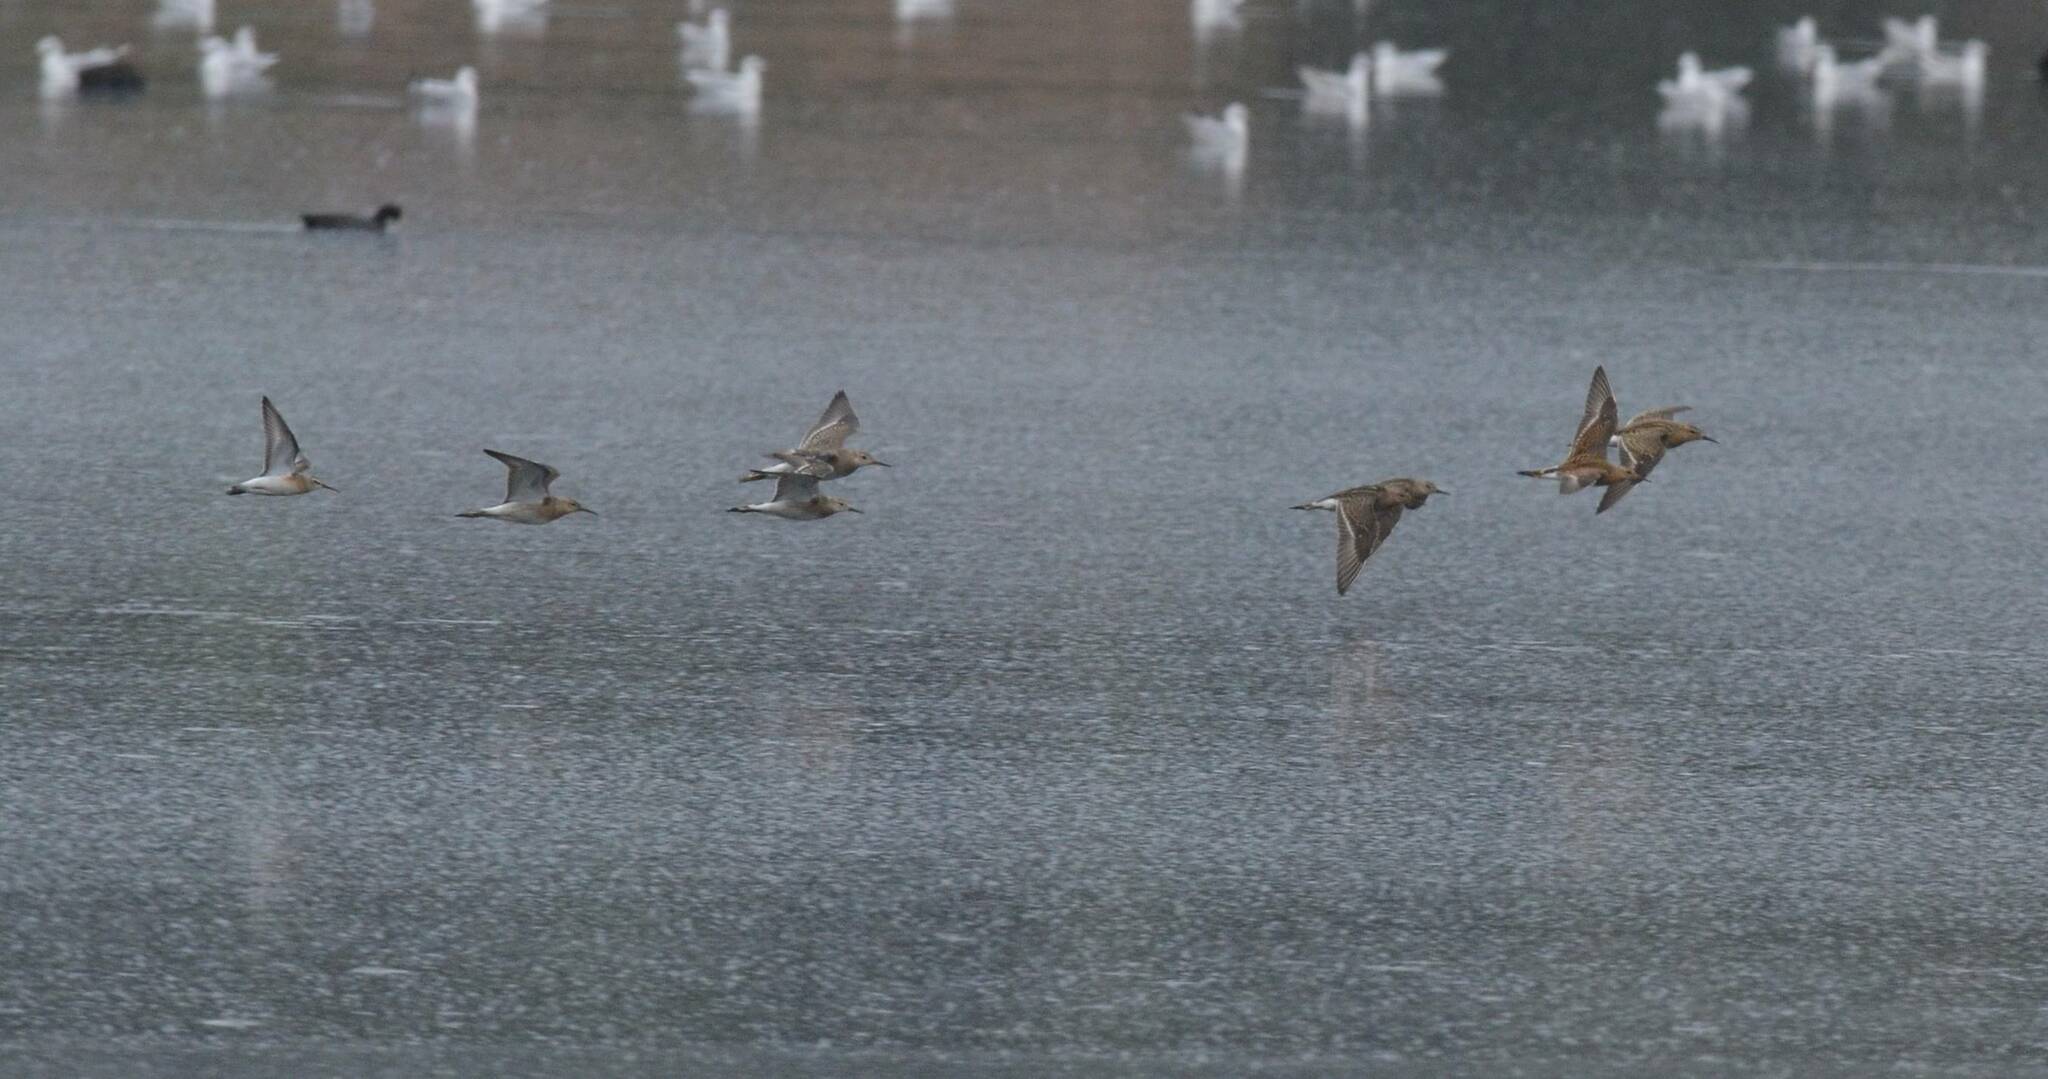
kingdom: Animalia
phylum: Chordata
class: Aves
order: Charadriiformes
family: Scolopacidae
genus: Calidris
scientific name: Calidris pugnax
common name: Ruff
